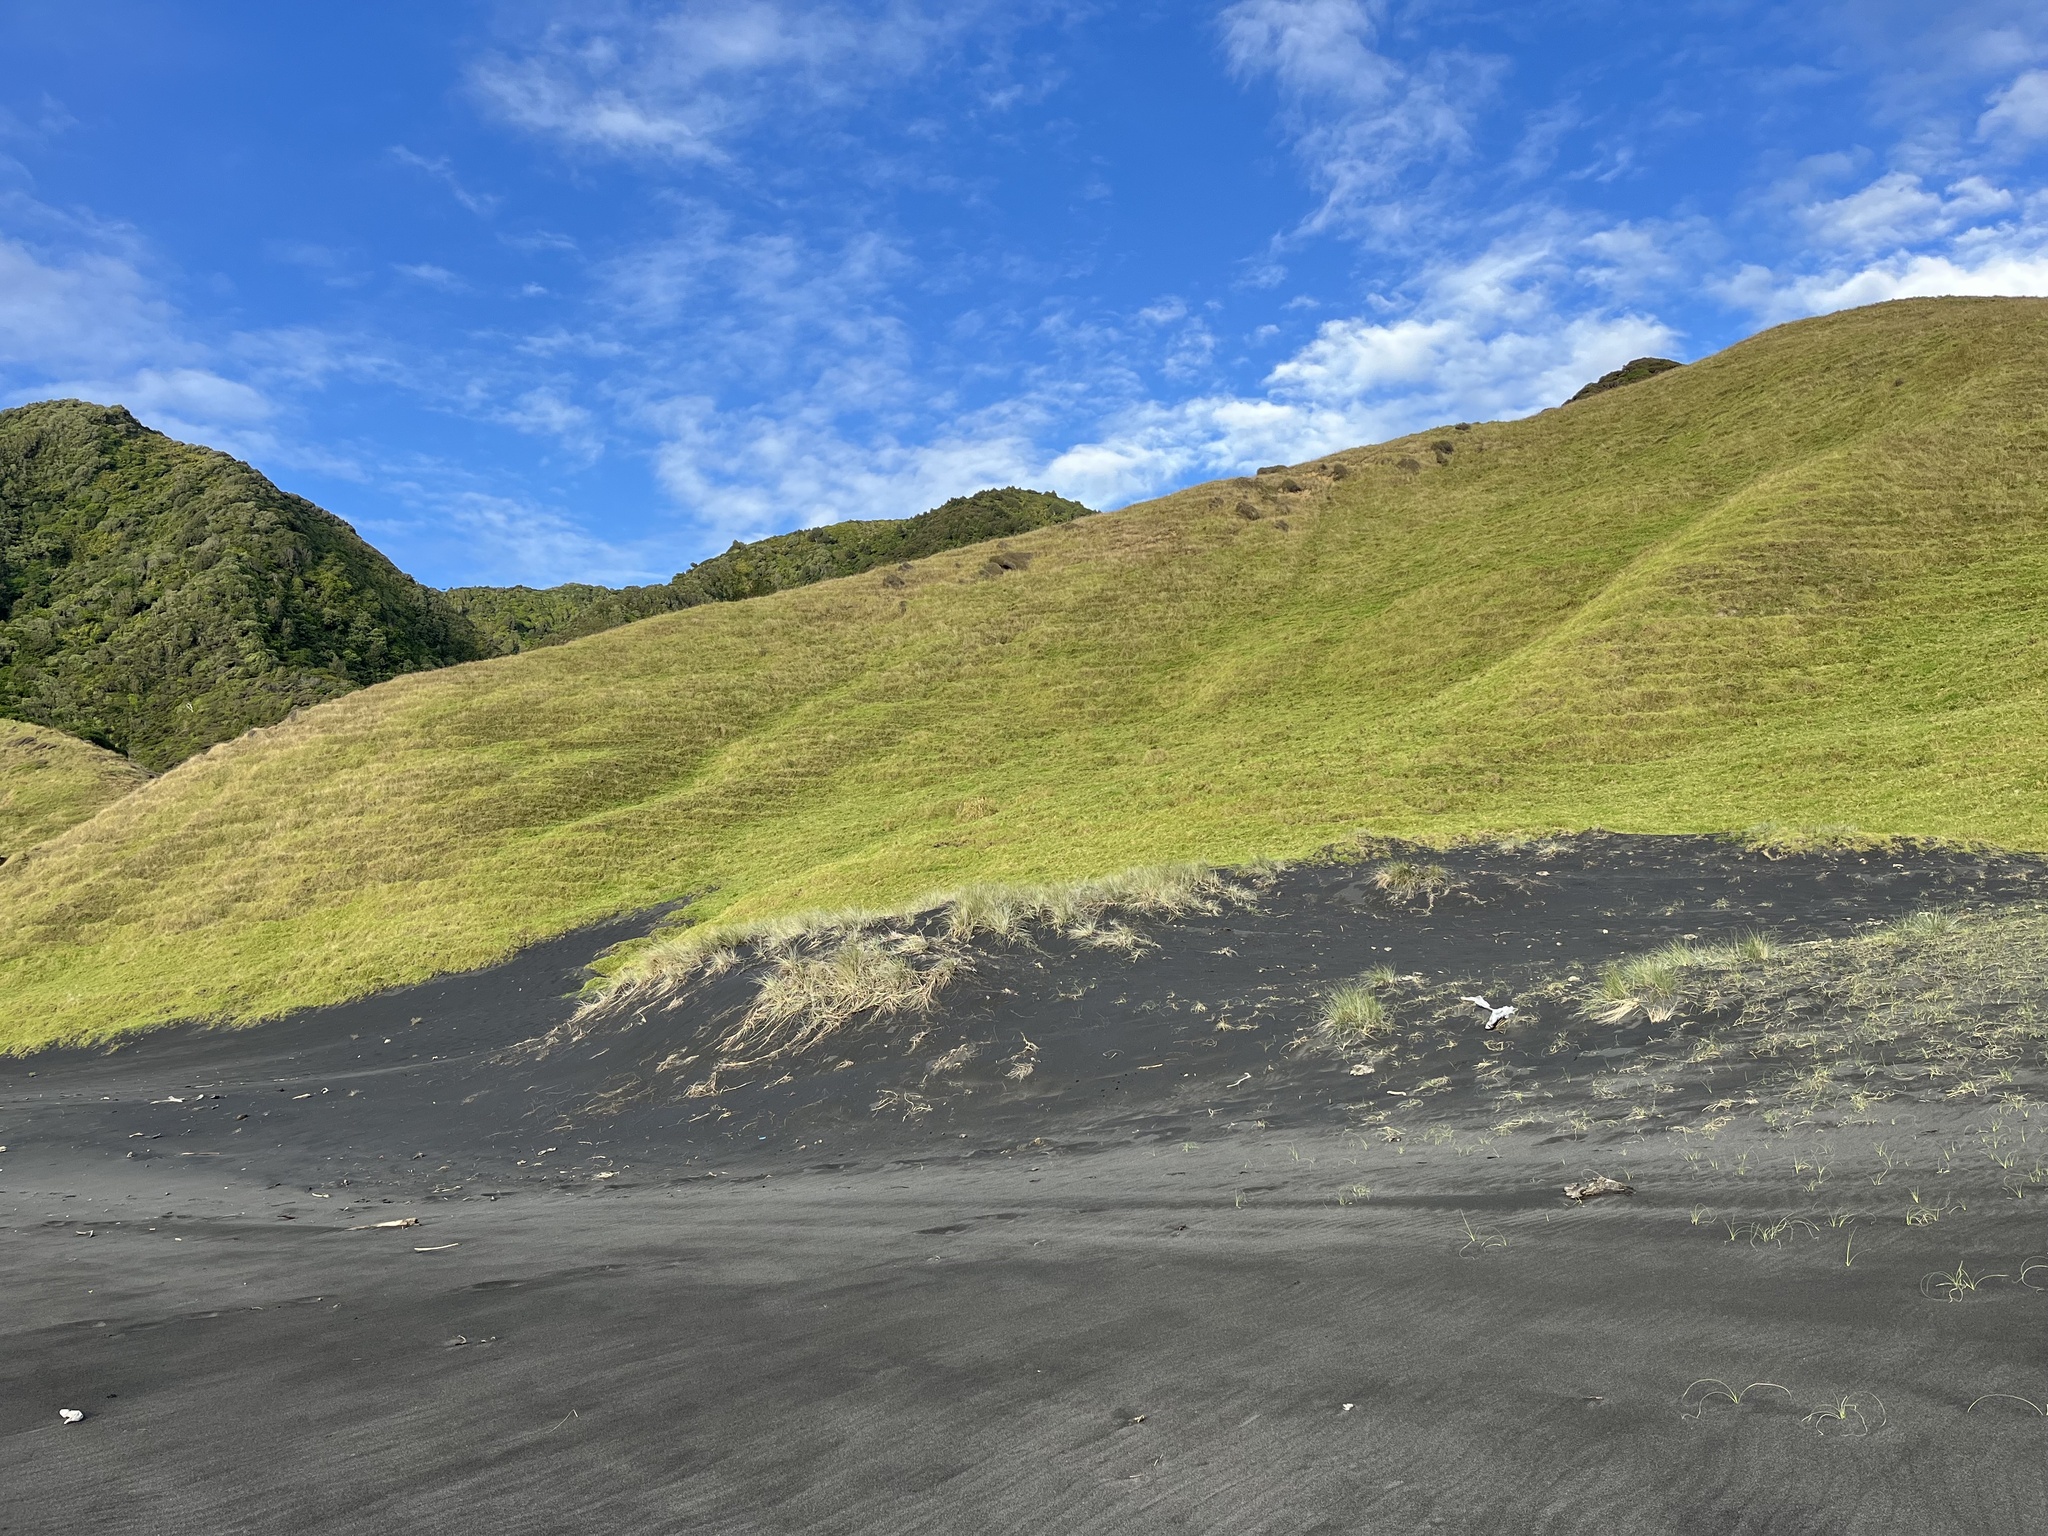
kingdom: Plantae
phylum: Tracheophyta
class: Liliopsida
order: Poales
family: Poaceae
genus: Spinifex
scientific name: Spinifex sericeus
